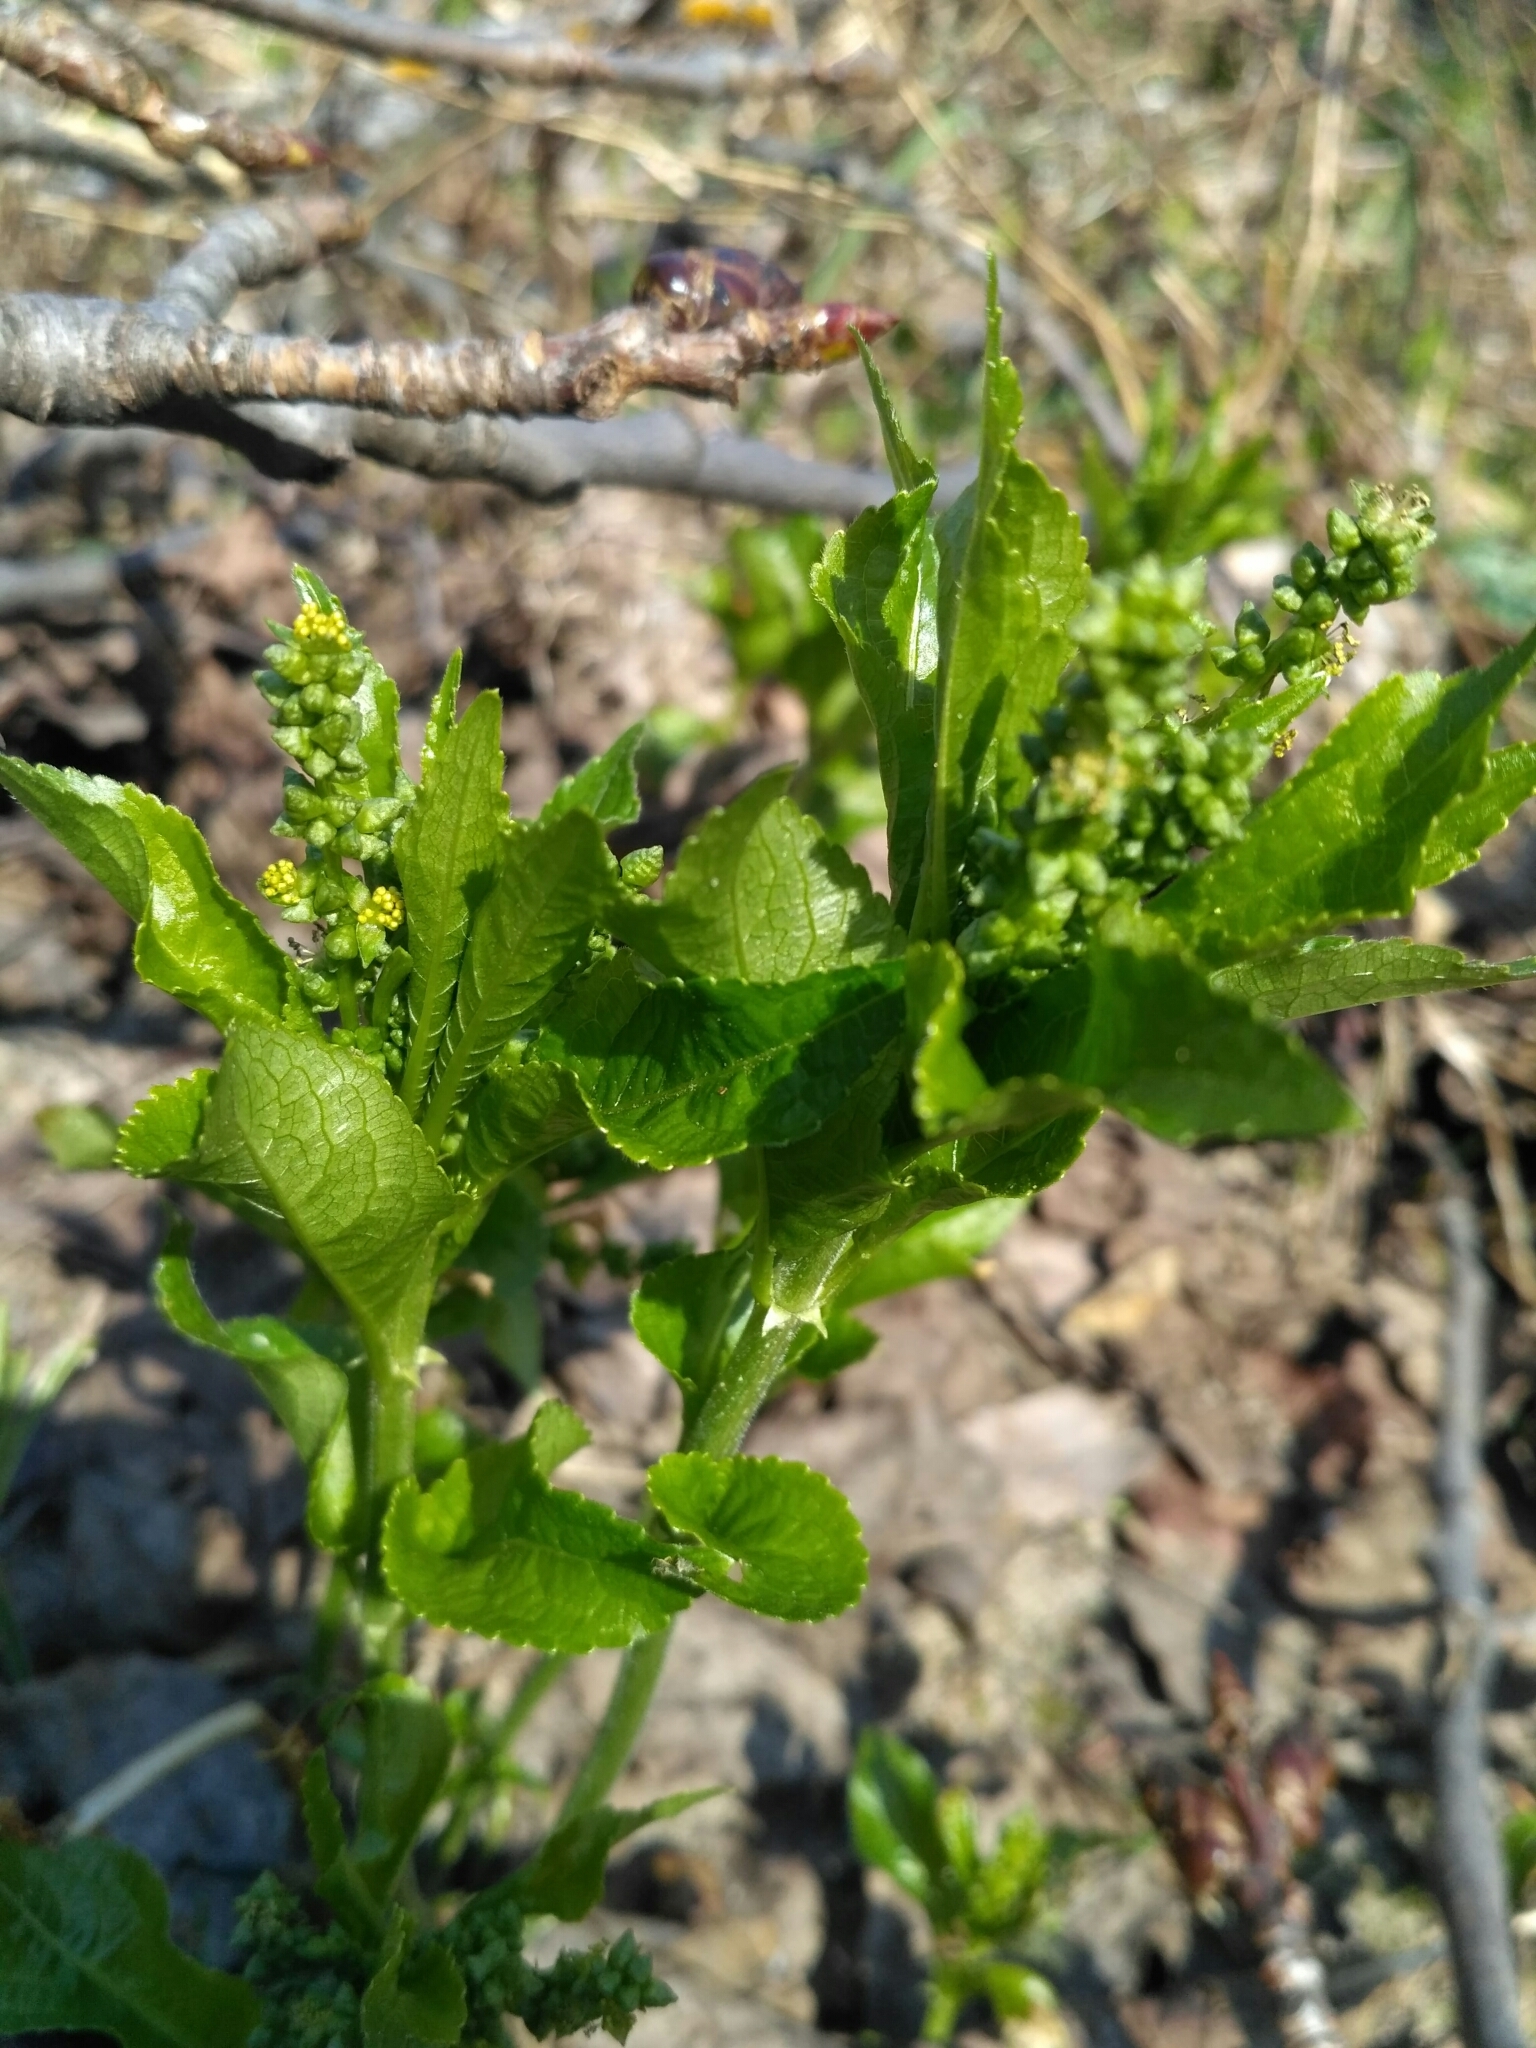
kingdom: Plantae
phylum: Tracheophyta
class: Magnoliopsida
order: Malpighiales
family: Euphorbiaceae
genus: Mercurialis
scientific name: Mercurialis perennis
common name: Dog mercury
